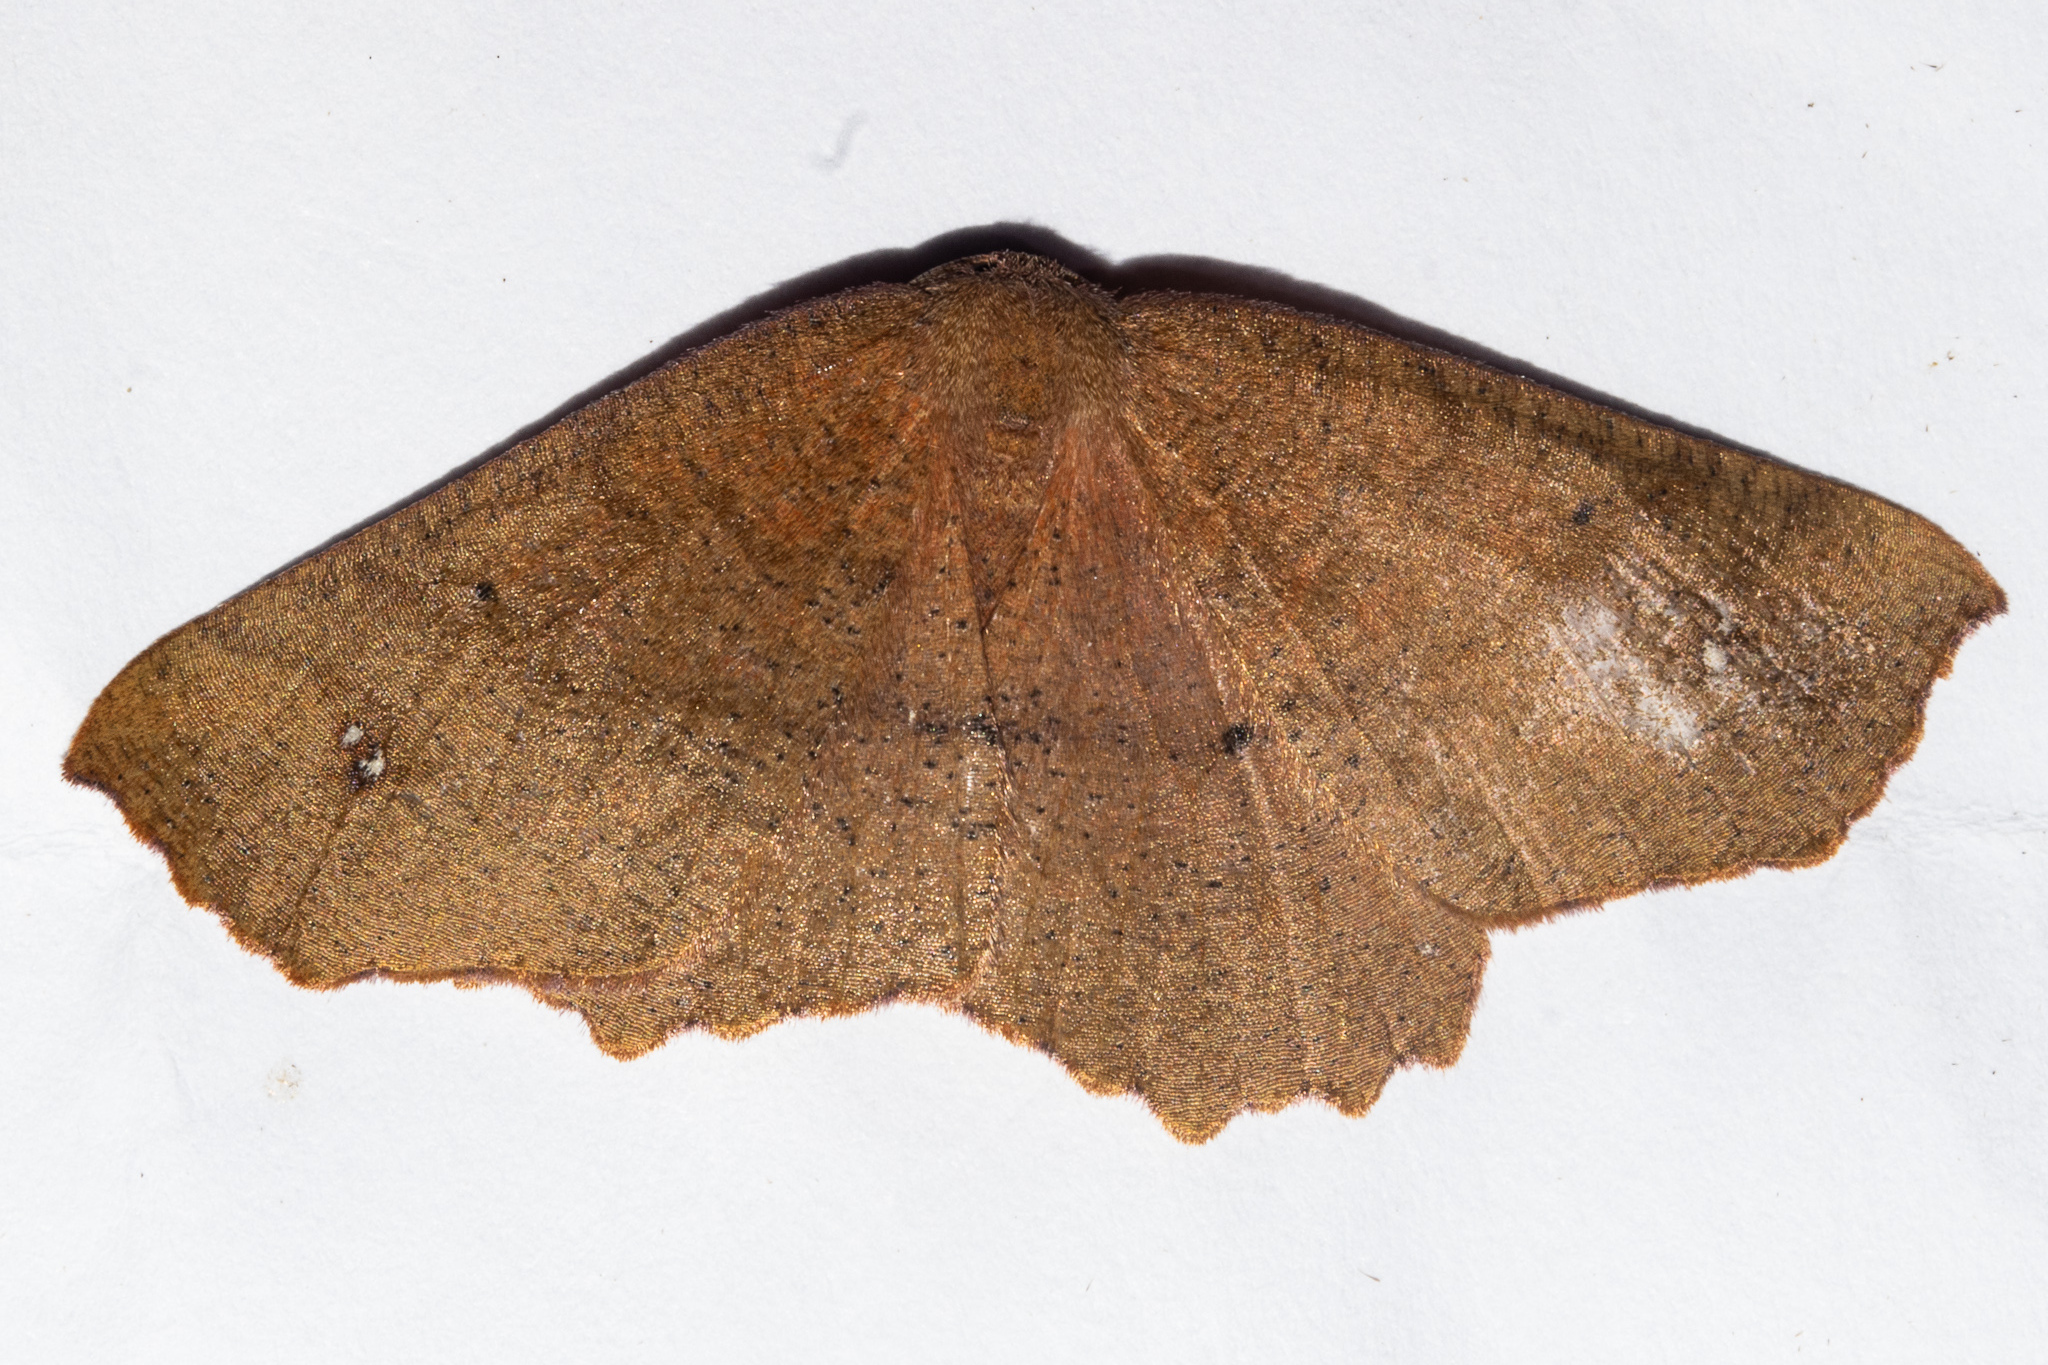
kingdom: Animalia
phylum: Arthropoda
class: Insecta
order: Lepidoptera
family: Geometridae
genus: Xyridacma
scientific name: Xyridacma ustaria
